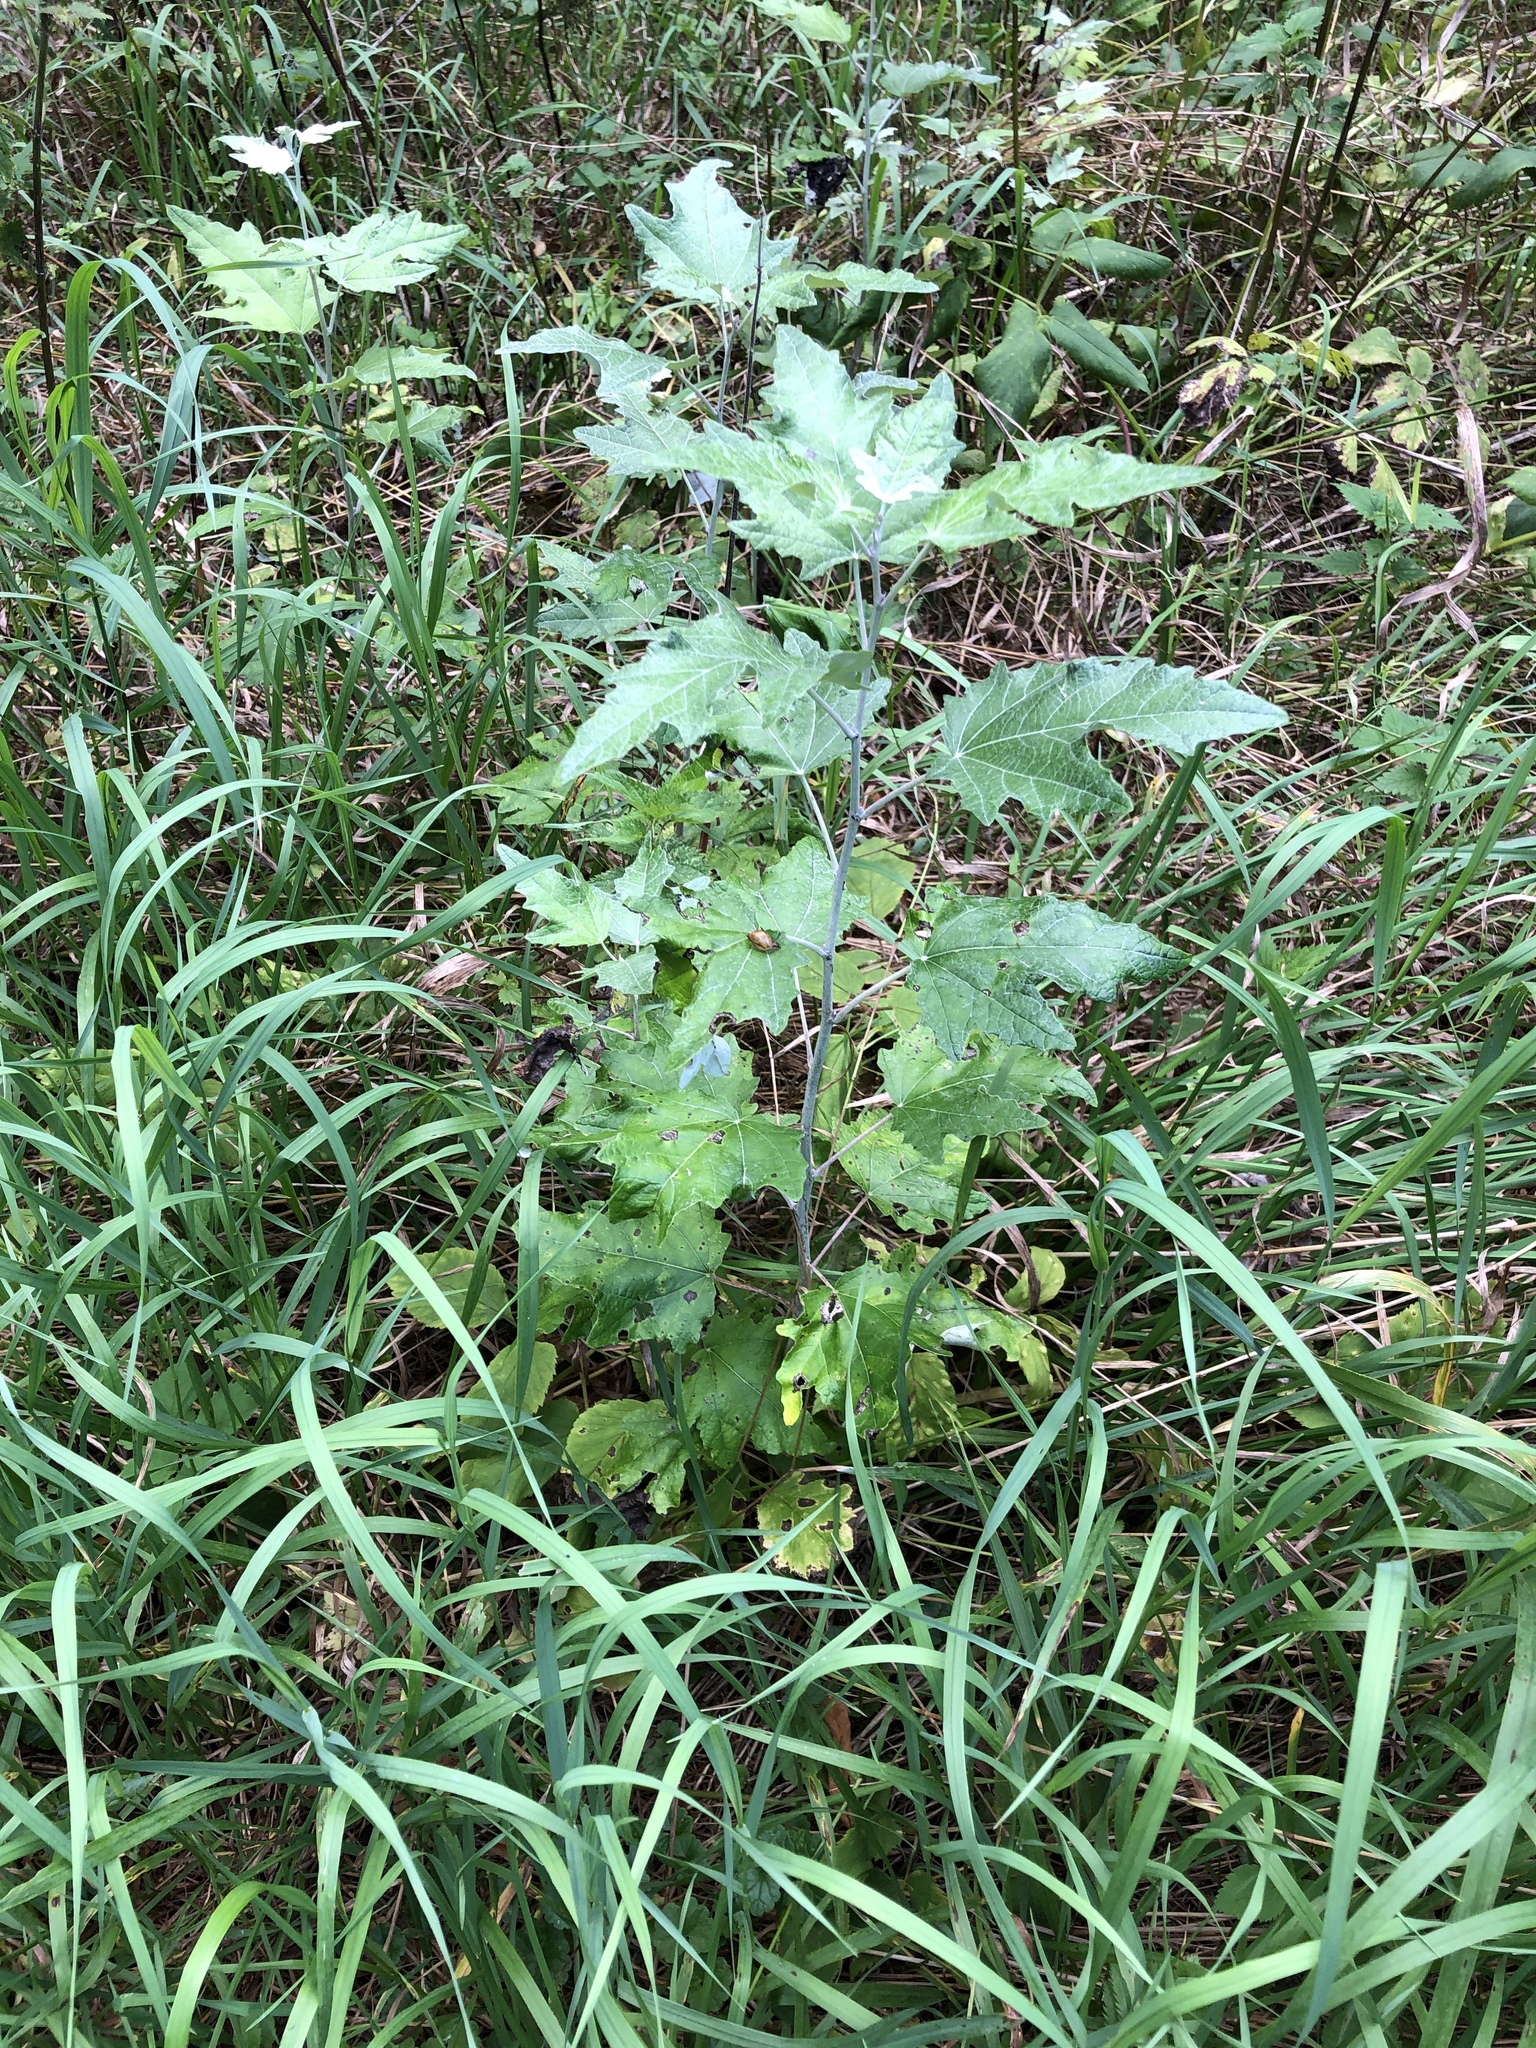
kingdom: Plantae
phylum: Tracheophyta
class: Magnoliopsida
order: Malpighiales
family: Salicaceae
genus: Populus
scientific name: Populus alba
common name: White poplar
